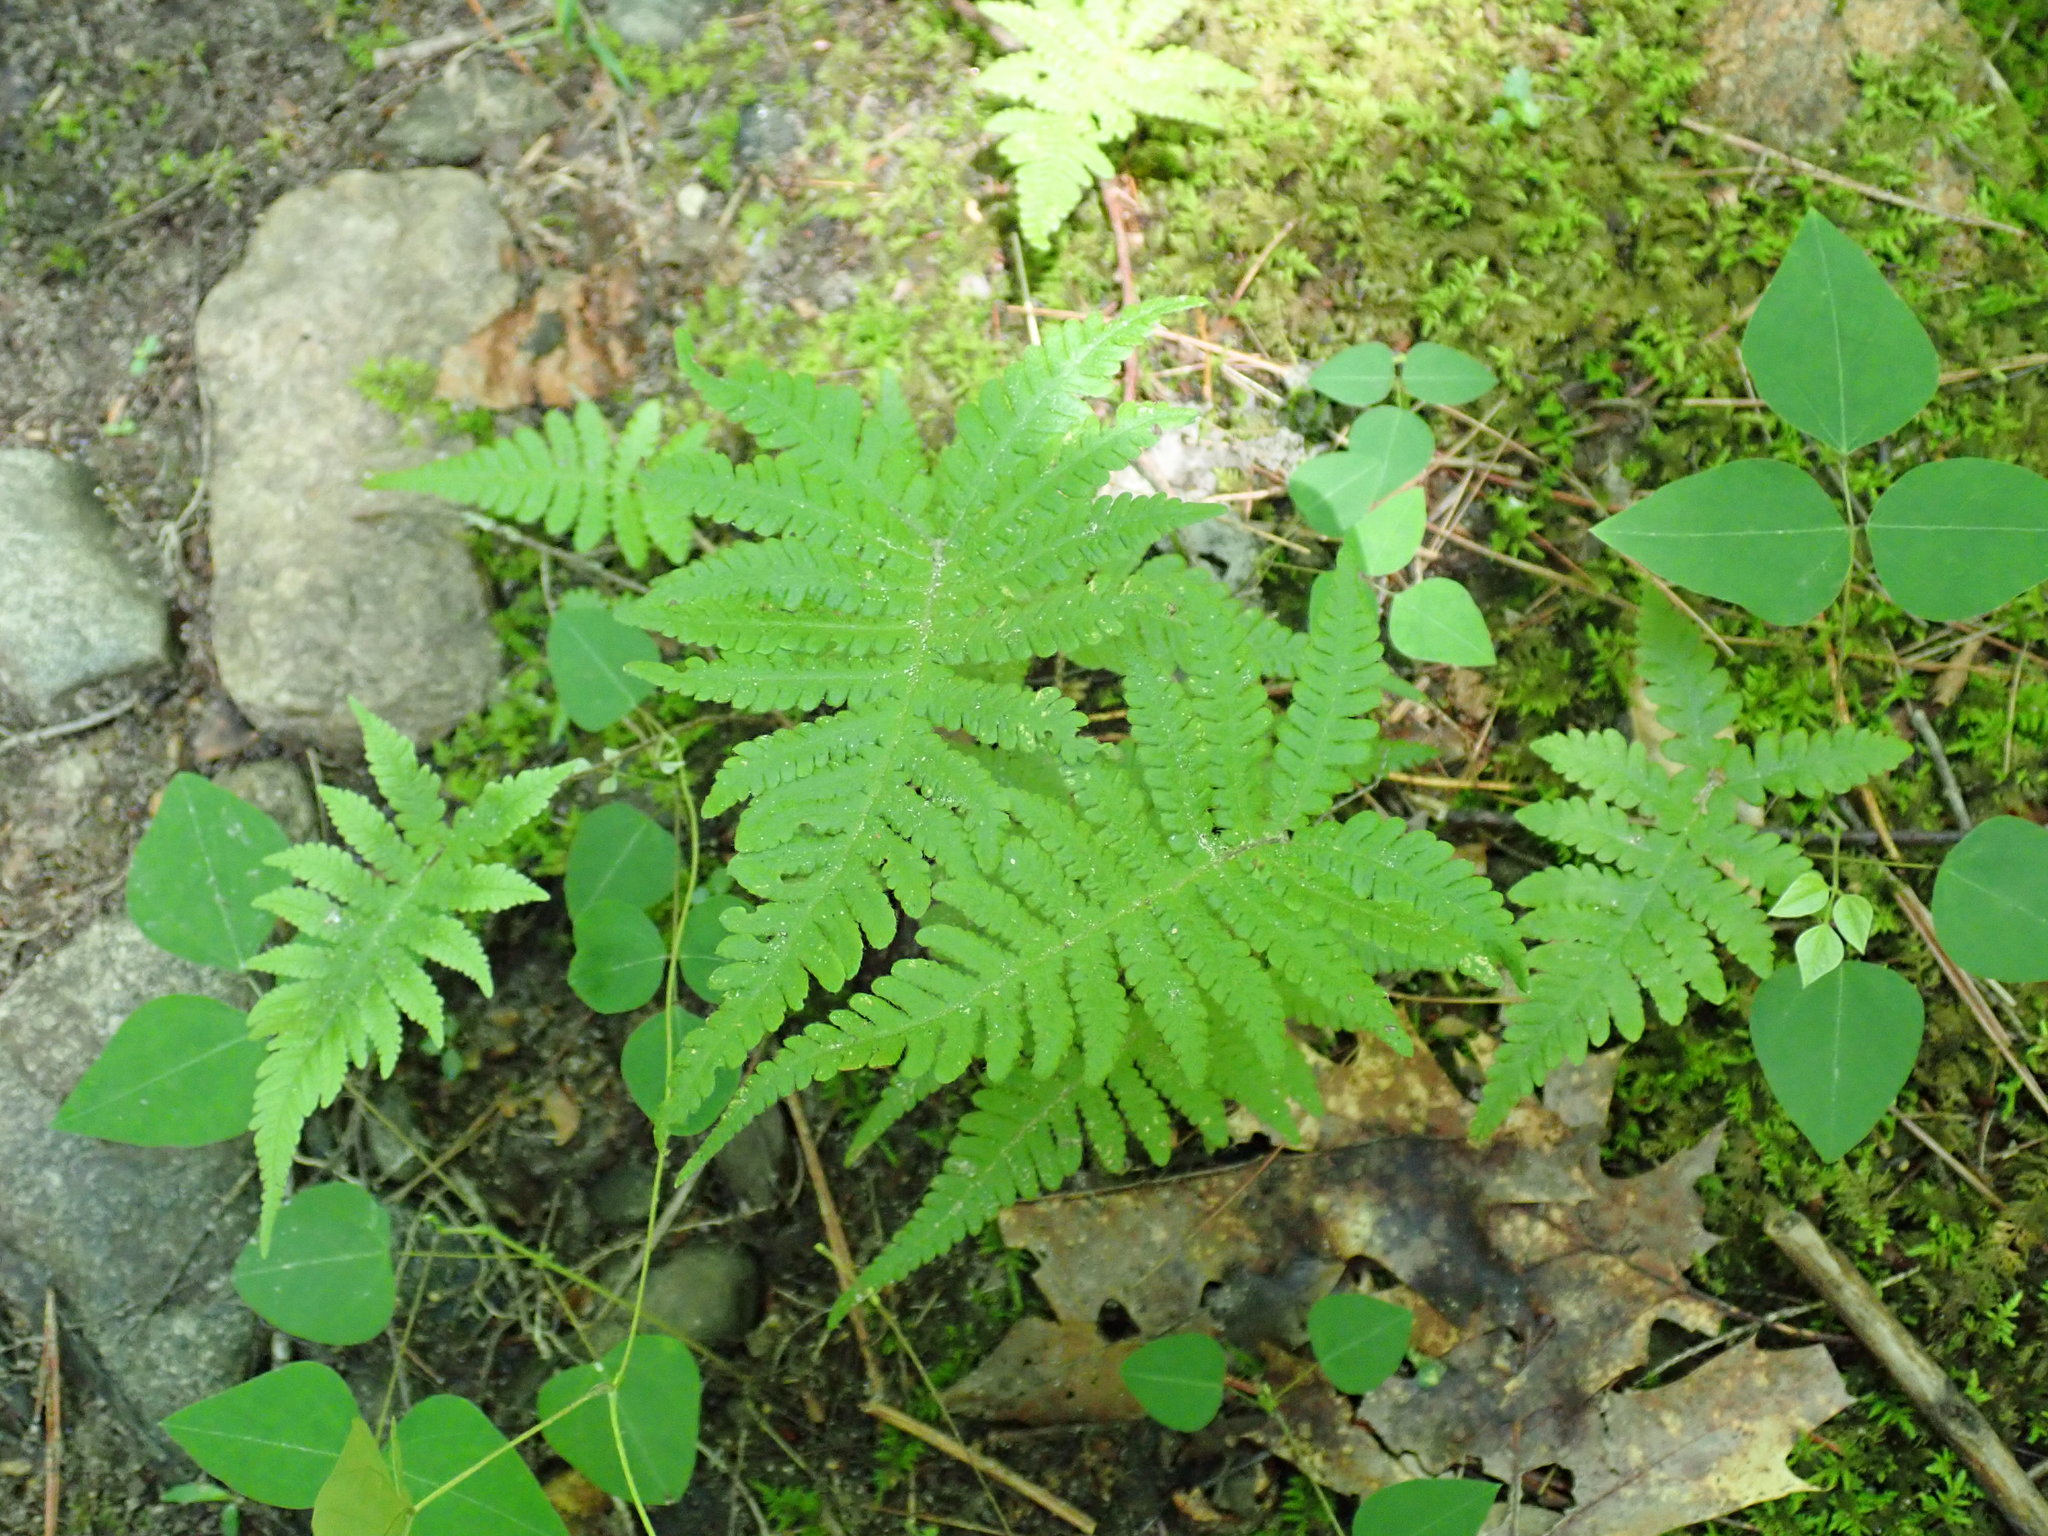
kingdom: Plantae
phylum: Tracheophyta
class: Polypodiopsida
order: Polypodiales
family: Thelypteridaceae
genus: Phegopteris
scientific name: Phegopteris connectilis
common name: Beech fern
